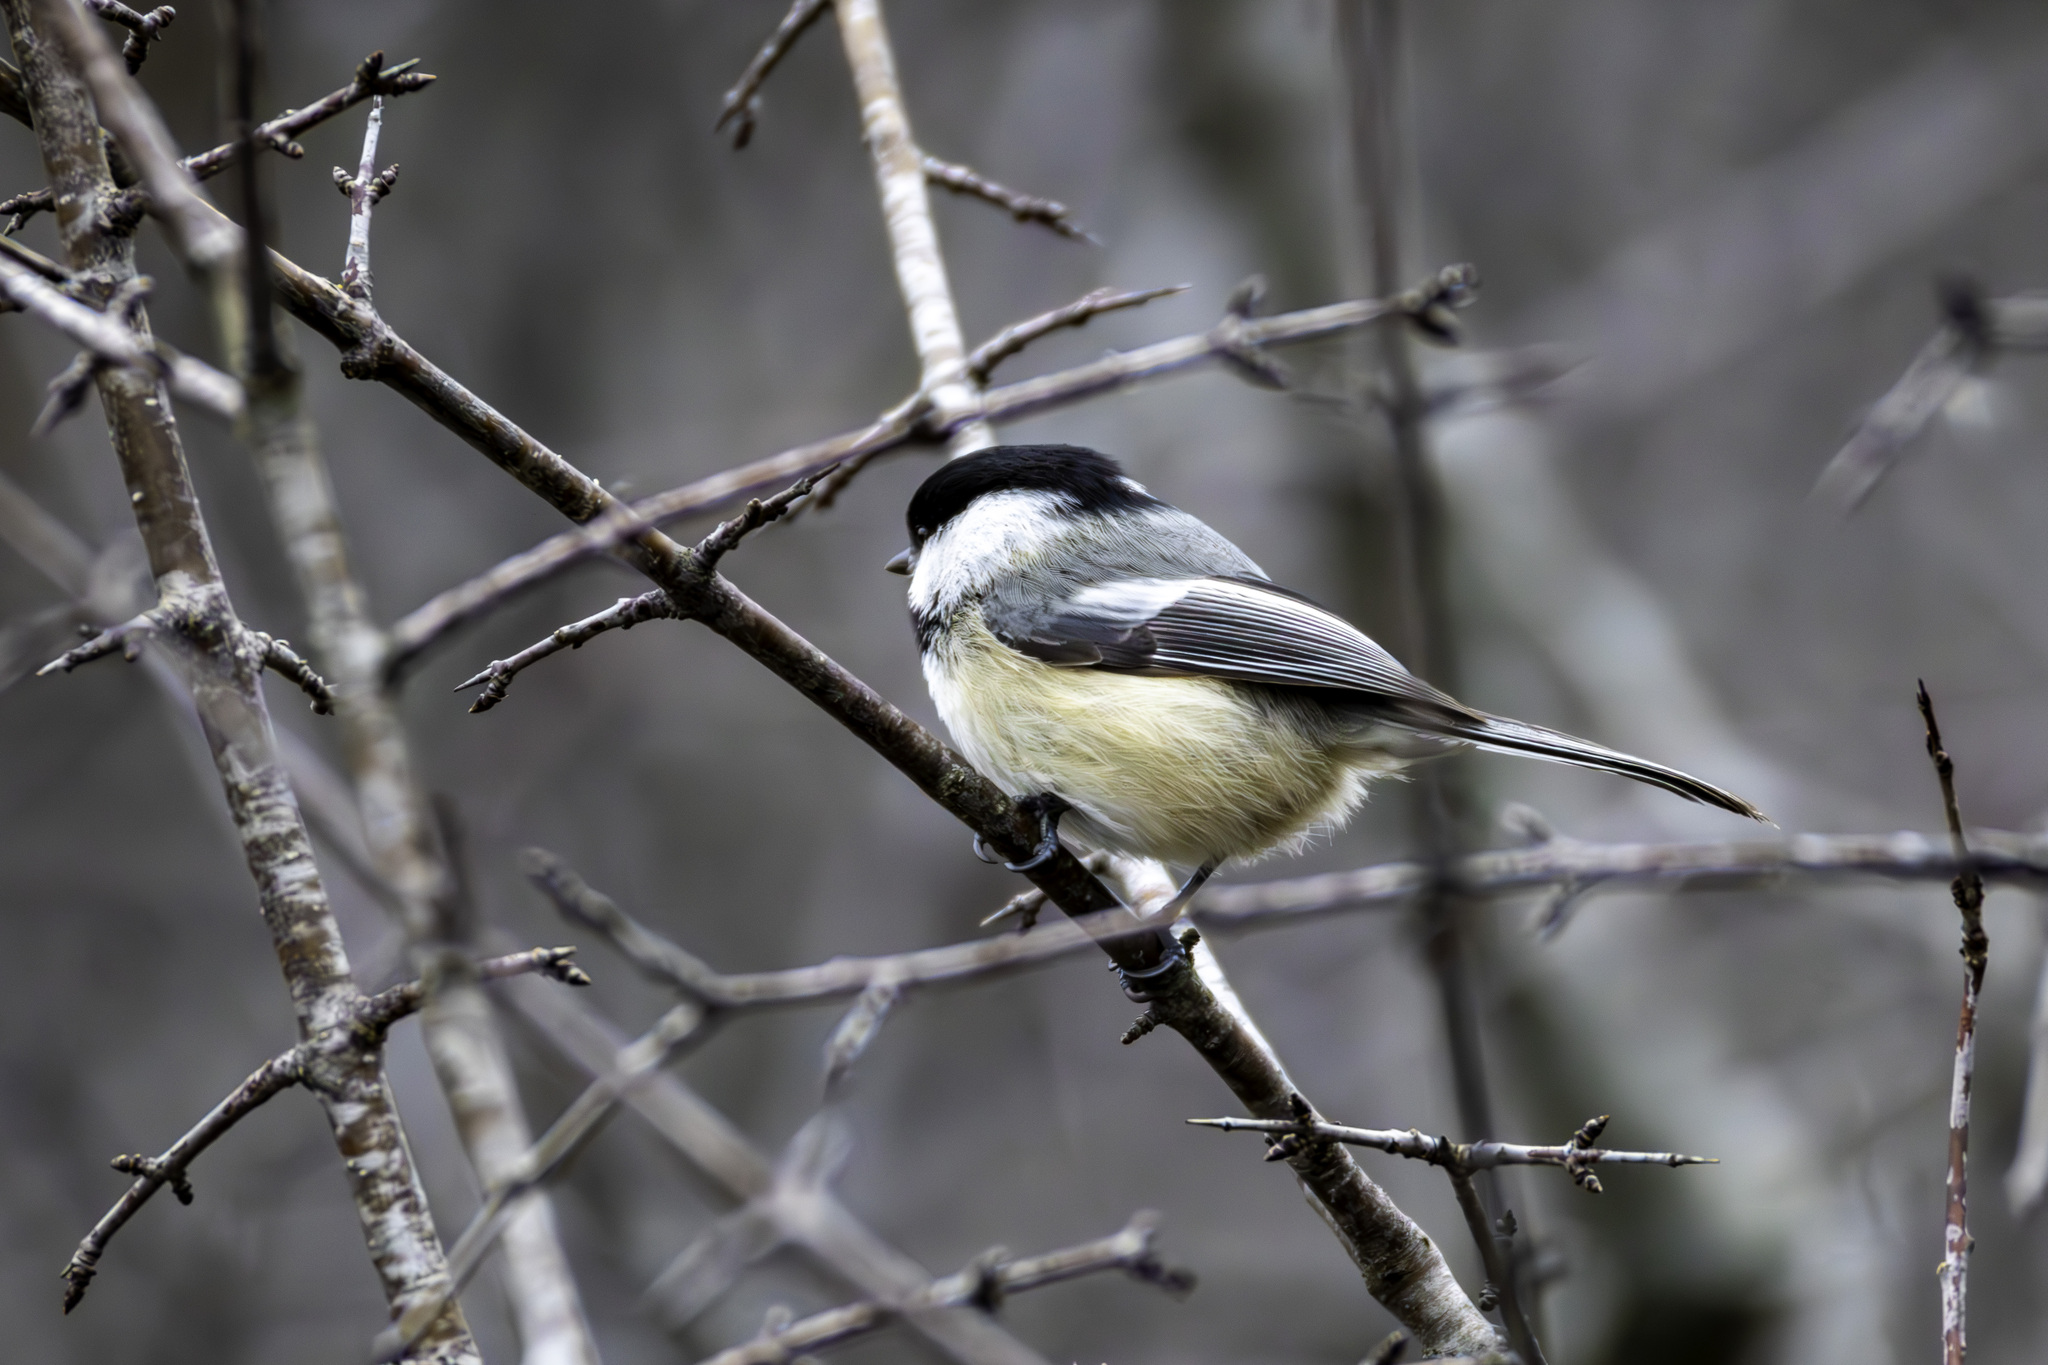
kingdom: Animalia
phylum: Chordata
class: Aves
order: Passeriformes
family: Paridae
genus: Poecile
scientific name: Poecile atricapillus
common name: Black-capped chickadee
